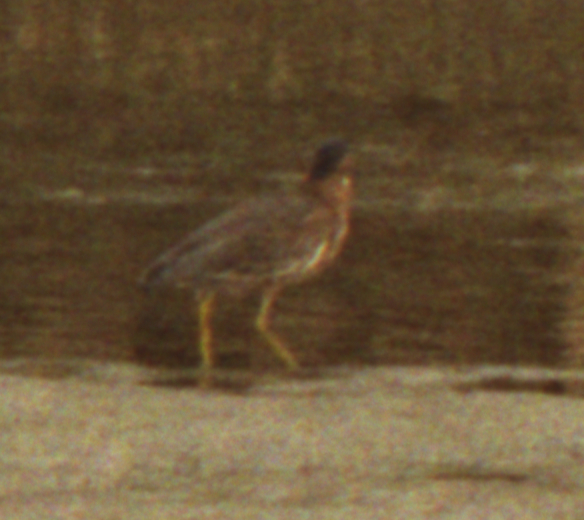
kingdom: Animalia
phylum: Chordata
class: Aves
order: Pelecaniformes
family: Ardeidae
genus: Butorides
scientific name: Butorides virescens
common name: Green heron
